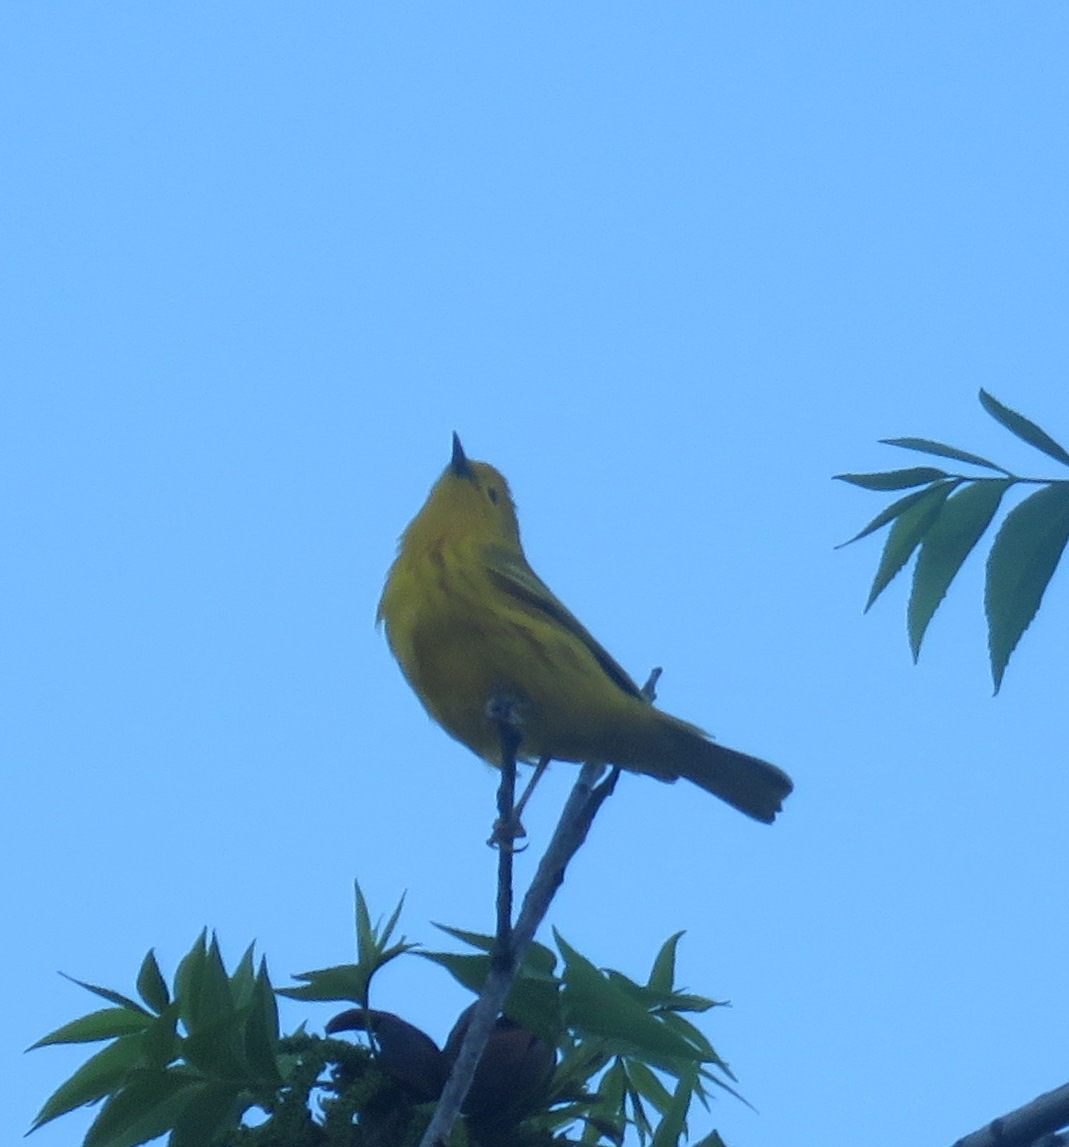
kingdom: Animalia
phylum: Chordata
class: Aves
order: Passeriformes
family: Parulidae
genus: Setophaga
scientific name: Setophaga petechia
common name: Yellow warbler
